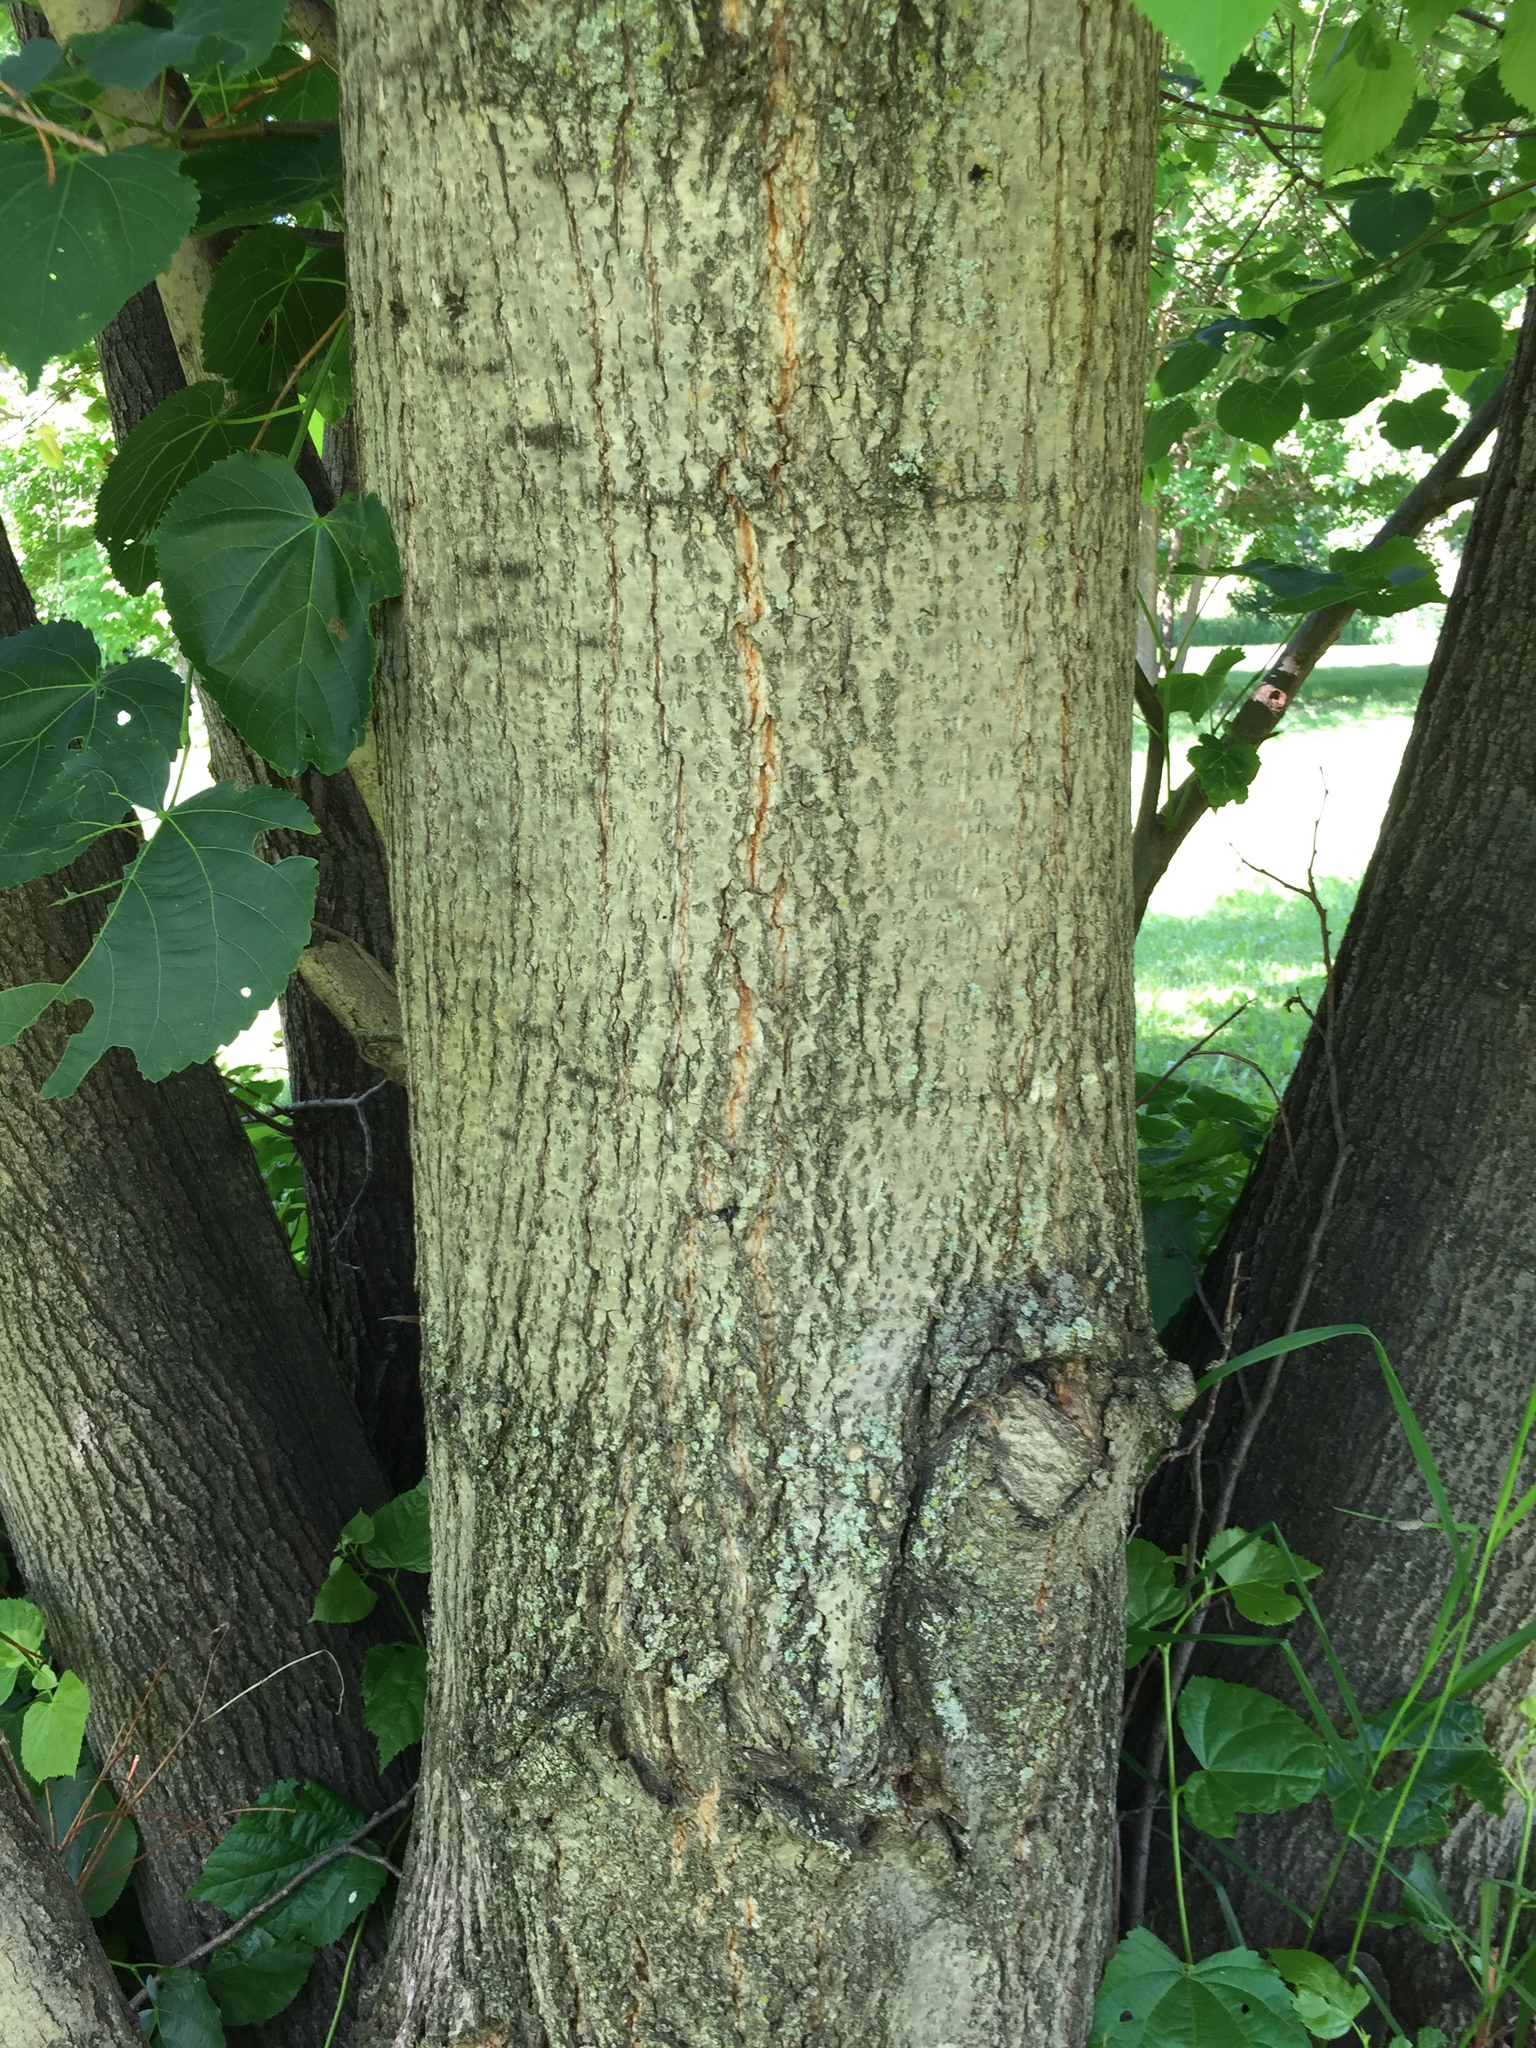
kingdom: Plantae
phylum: Tracheophyta
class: Magnoliopsida
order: Malvales
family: Malvaceae
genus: Tilia
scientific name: Tilia americana
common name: Basswood
